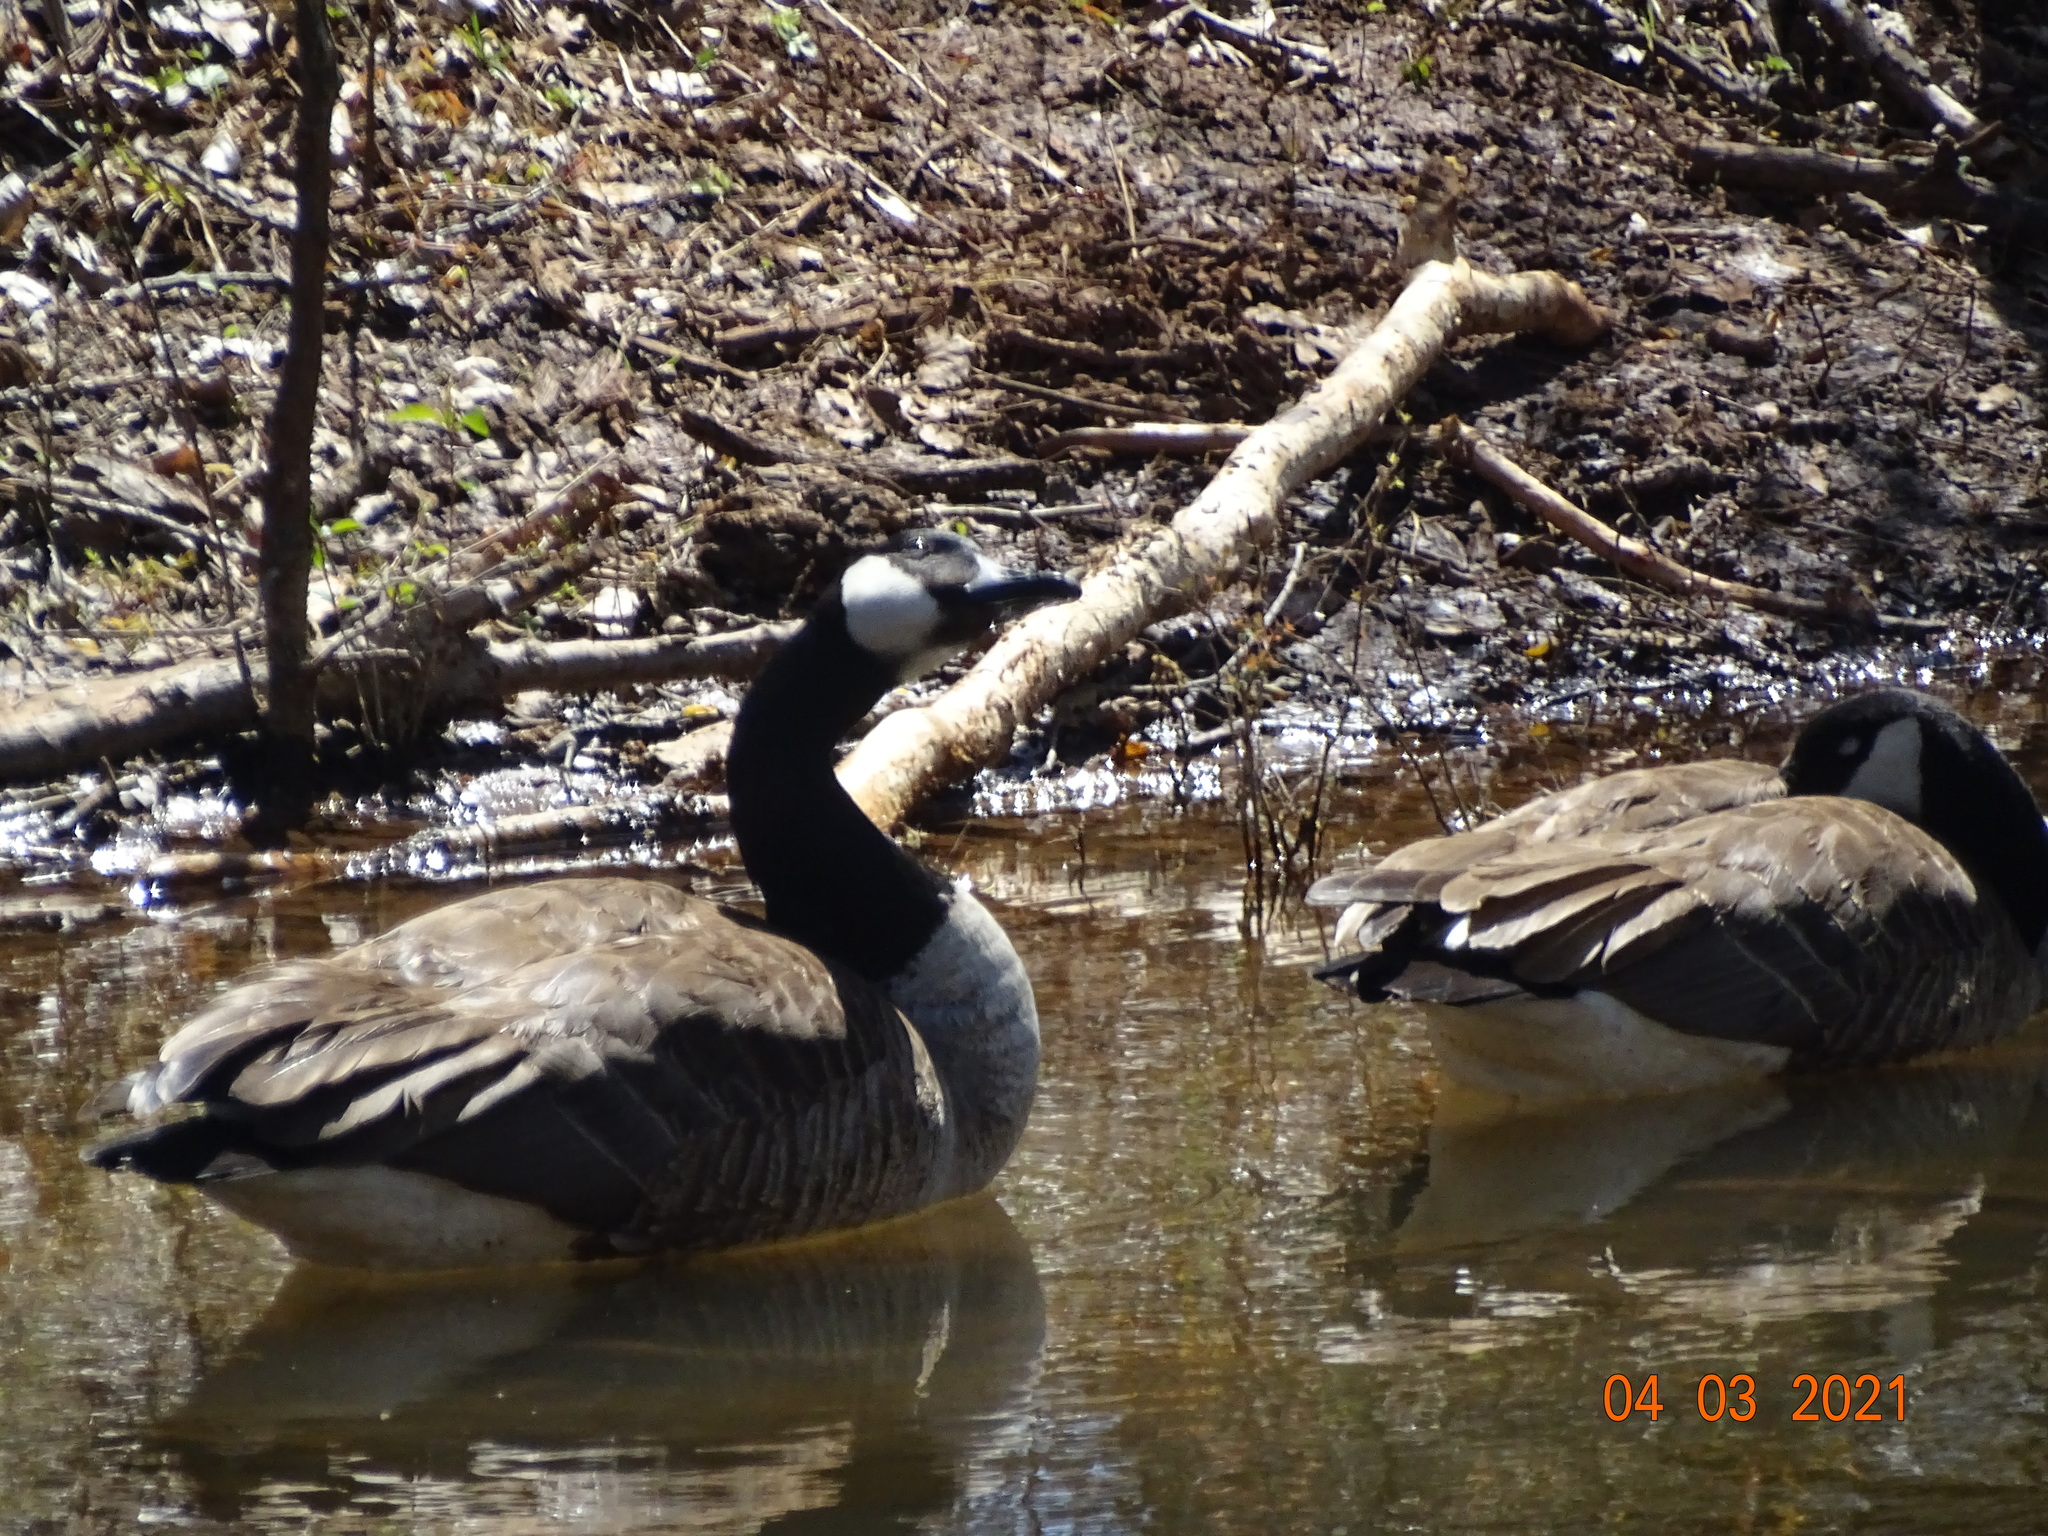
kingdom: Animalia
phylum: Chordata
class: Aves
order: Anseriformes
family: Anatidae
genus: Branta
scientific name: Branta canadensis
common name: Canada goose
